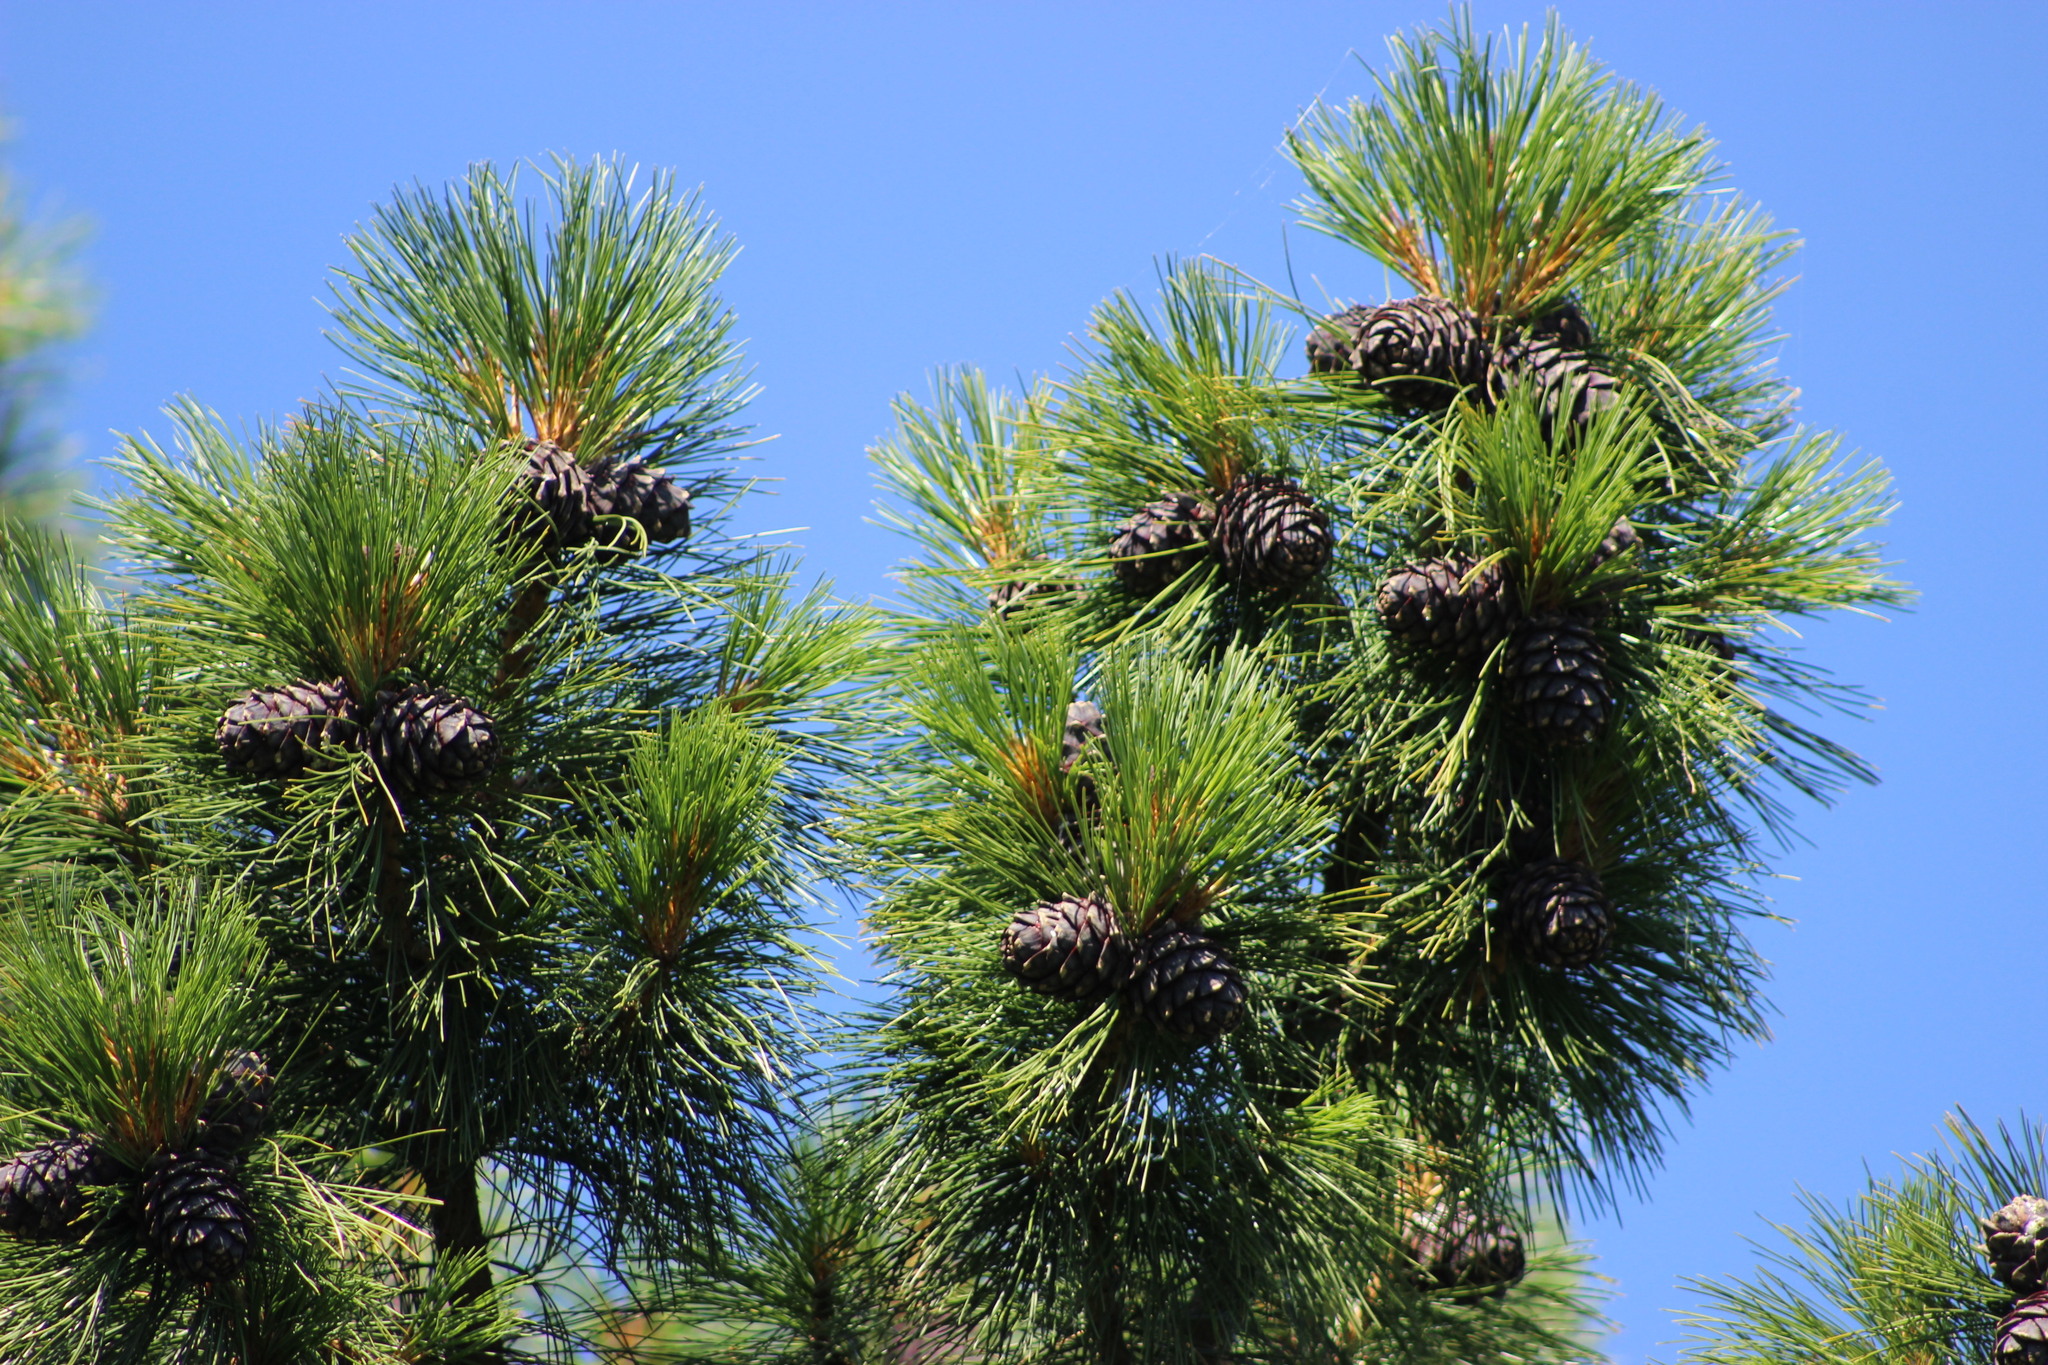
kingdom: Plantae
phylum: Tracheophyta
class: Pinopsida
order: Pinales
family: Pinaceae
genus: Pinus
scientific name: Pinus sibirica
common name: Siberian pine
